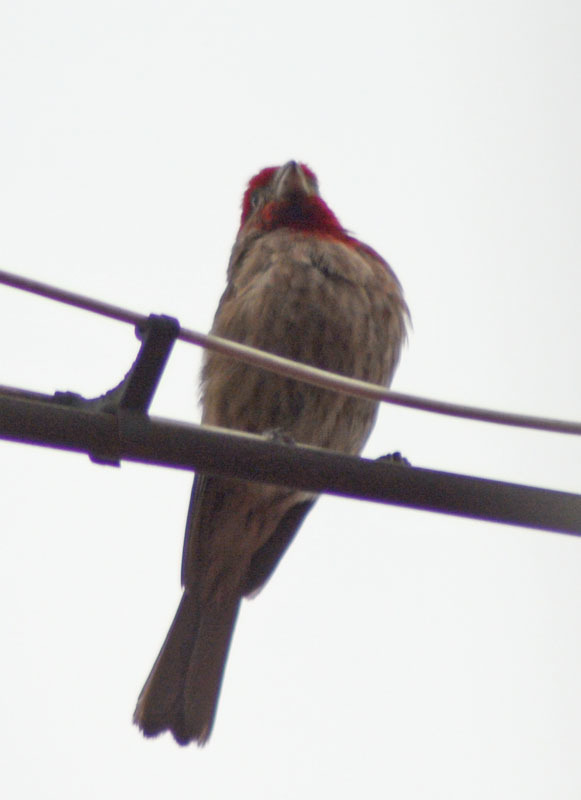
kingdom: Animalia
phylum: Chordata
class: Aves
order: Passeriformes
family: Fringillidae
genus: Haemorhous
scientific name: Haemorhous mexicanus
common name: House finch
